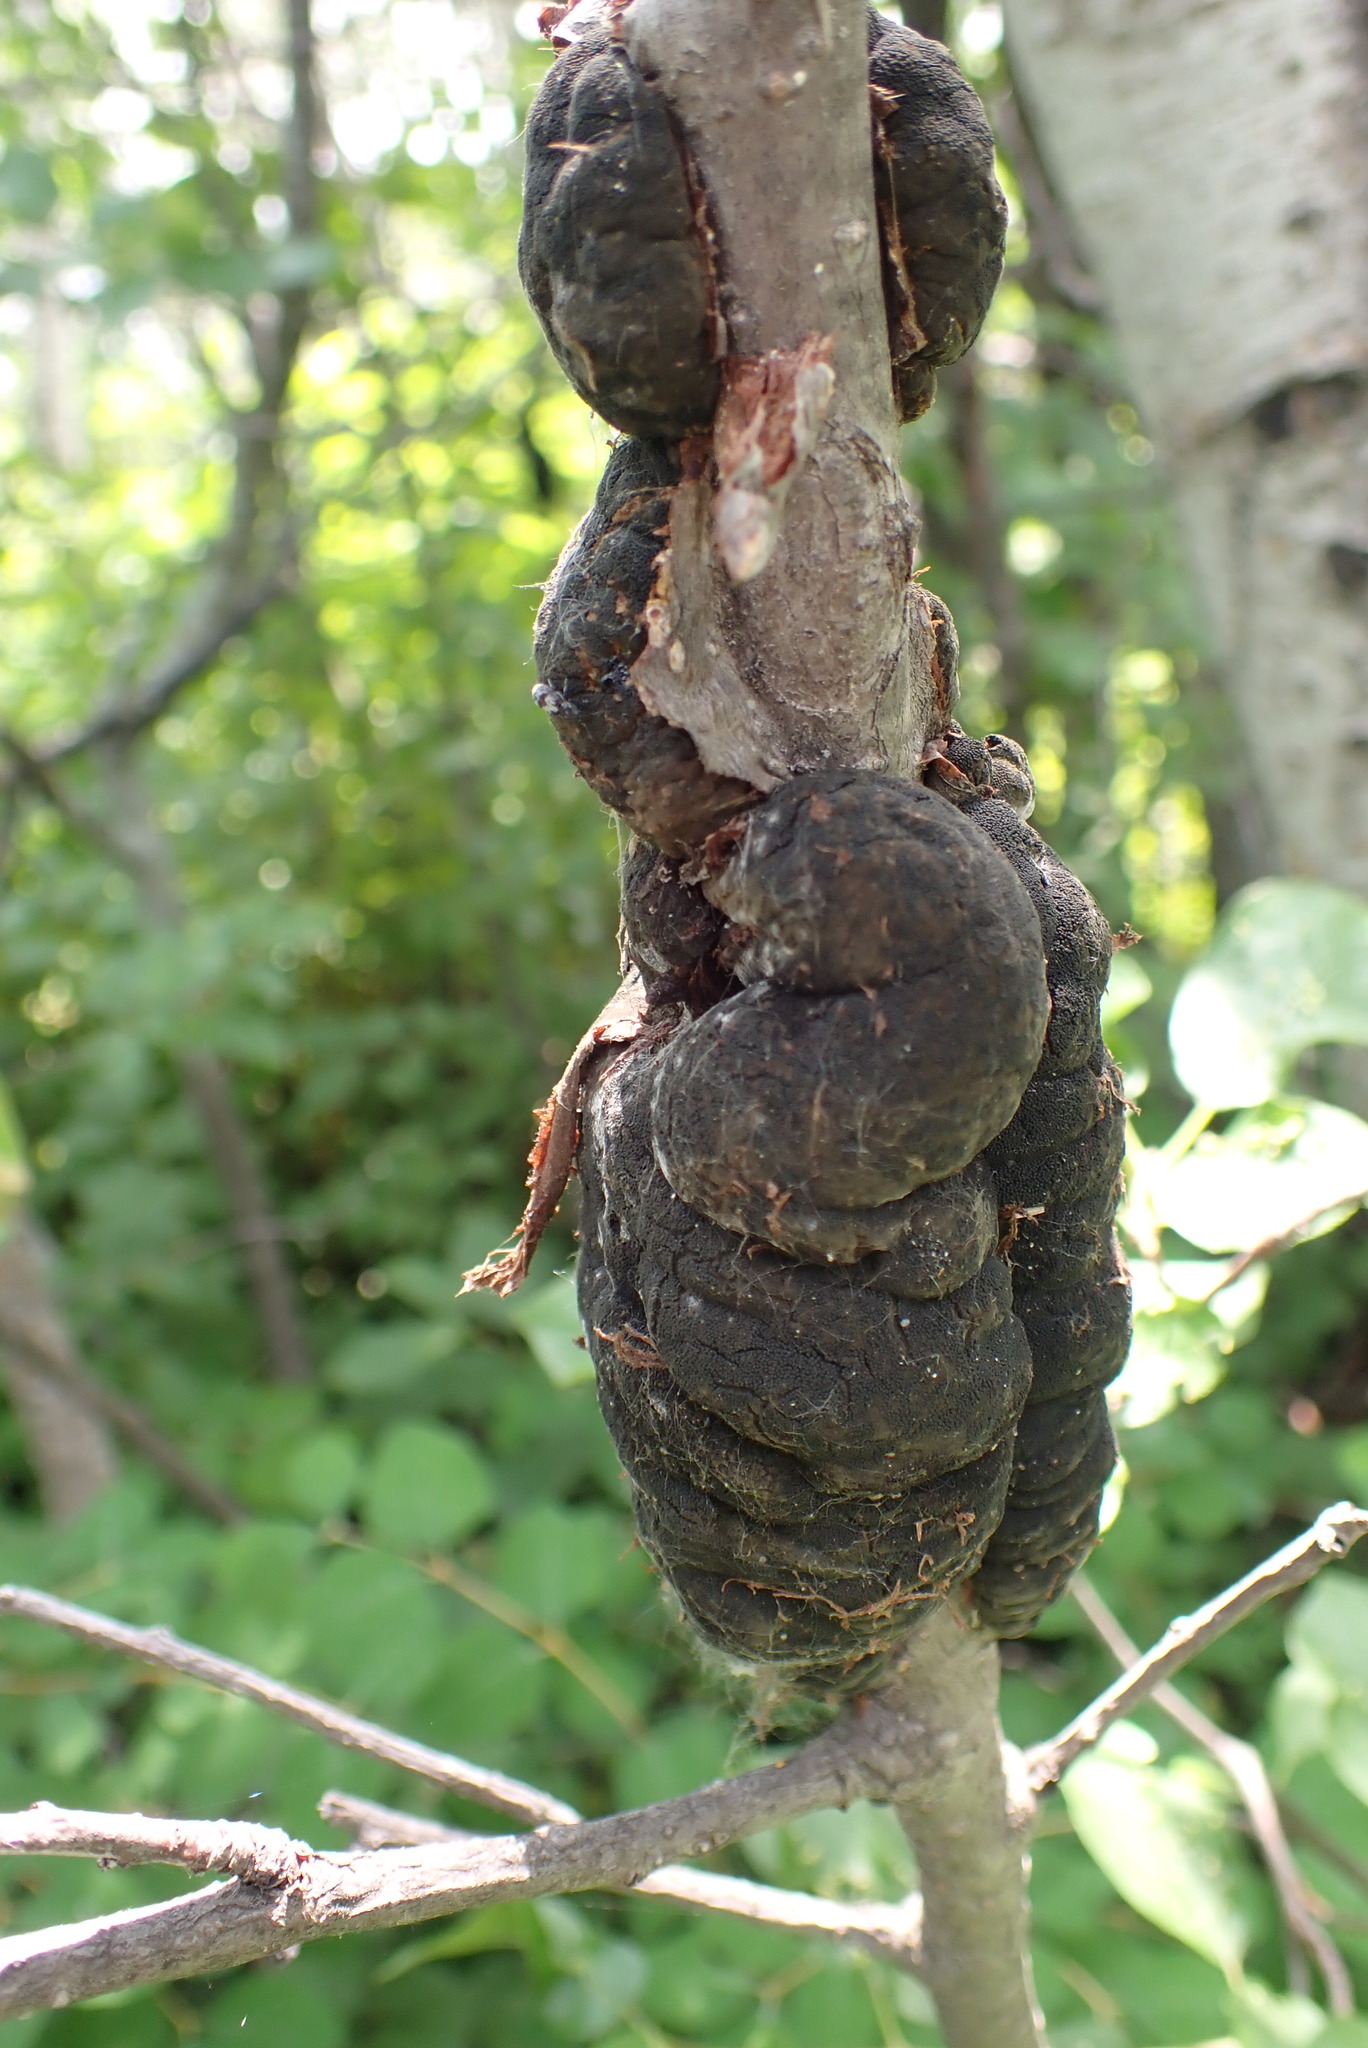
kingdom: Fungi
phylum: Ascomycota
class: Dothideomycetes
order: Venturiales
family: Venturiaceae
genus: Apiosporina
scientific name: Apiosporina morbosa
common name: Black knot
